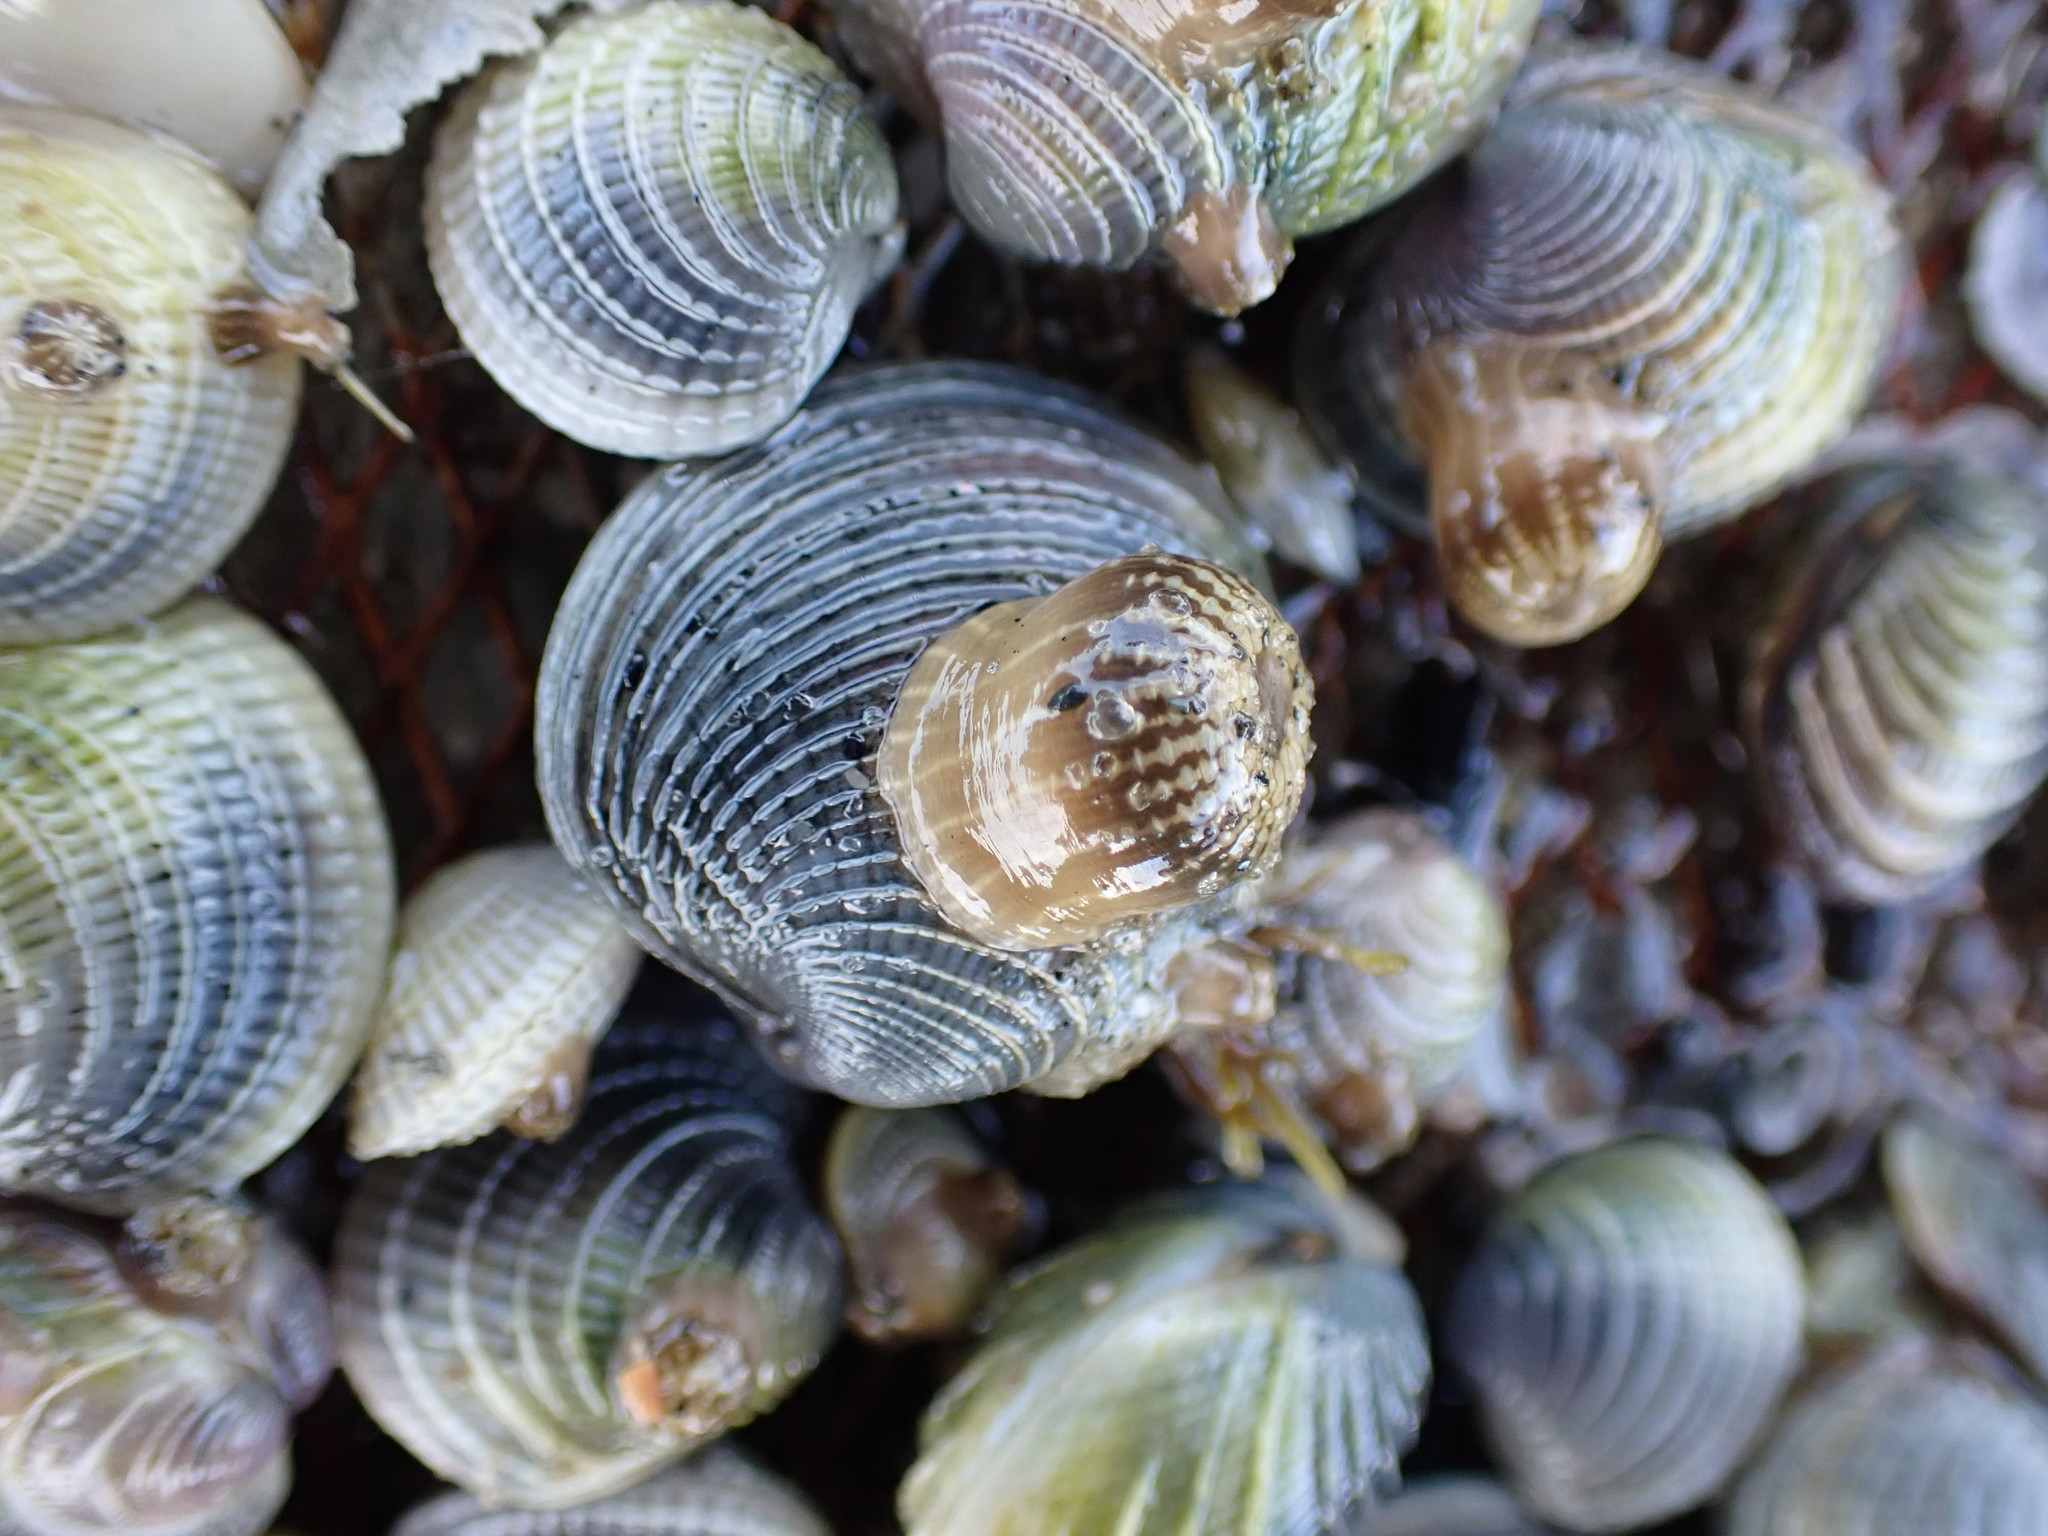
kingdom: Animalia
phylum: Cnidaria
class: Anthozoa
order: Actiniaria
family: Actiniidae
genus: Anthopleura
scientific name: Anthopleura hermaphroditica
